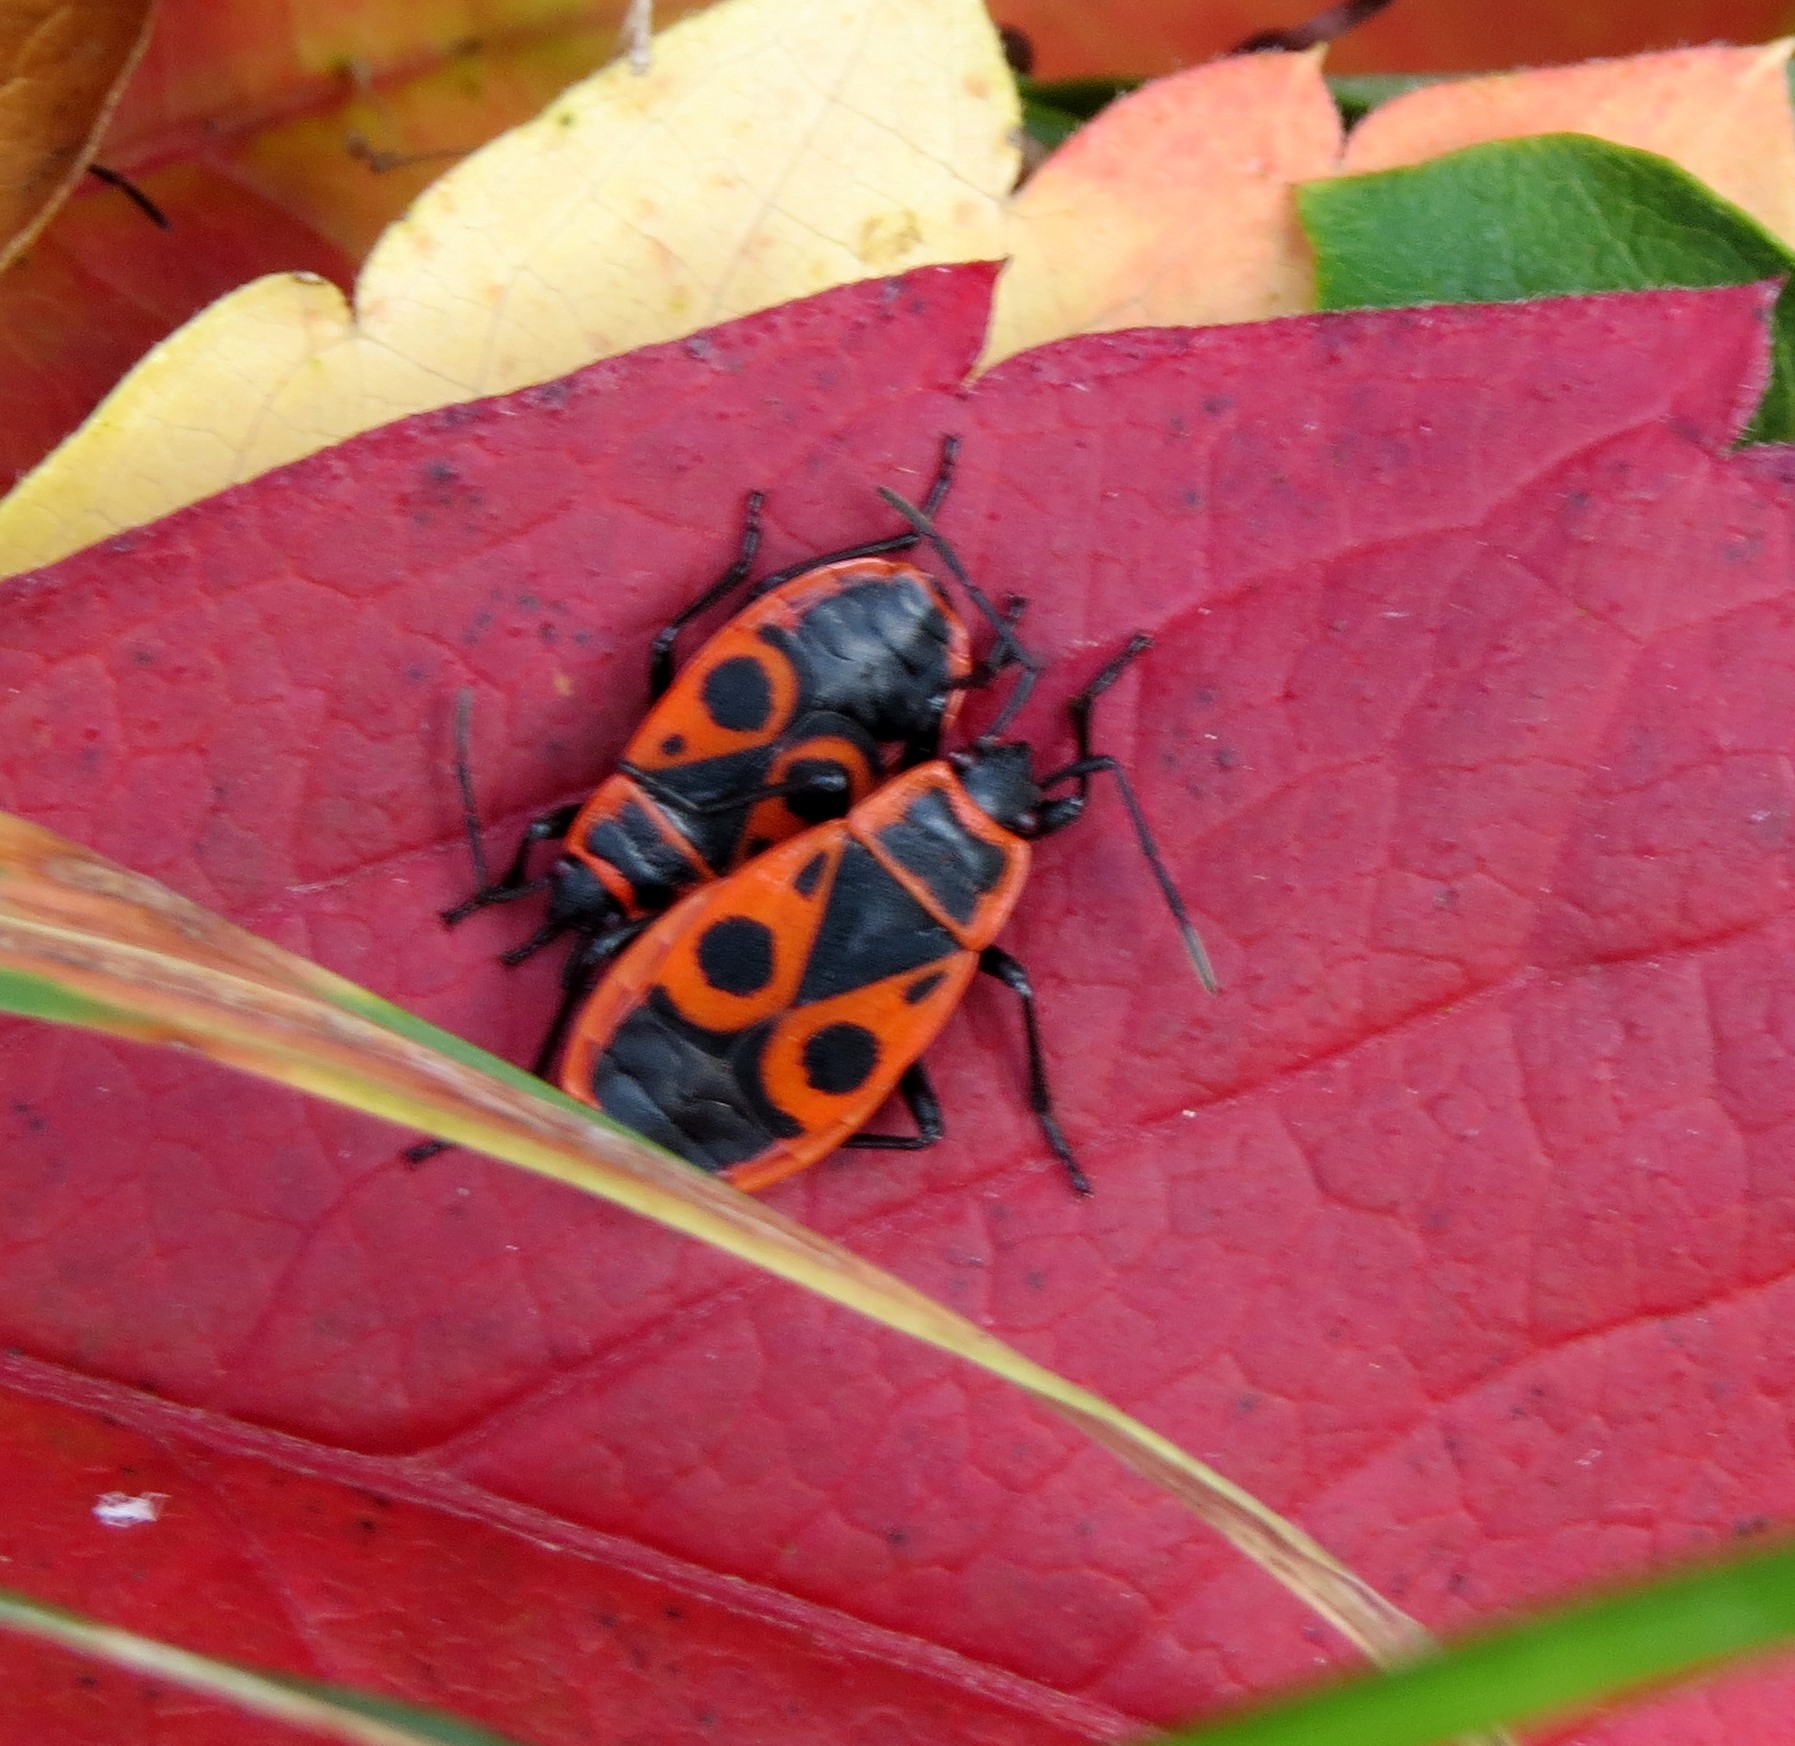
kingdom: Animalia
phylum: Arthropoda
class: Insecta
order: Hemiptera
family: Pyrrhocoridae
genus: Pyrrhocoris
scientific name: Pyrrhocoris apterus
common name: Firebug
